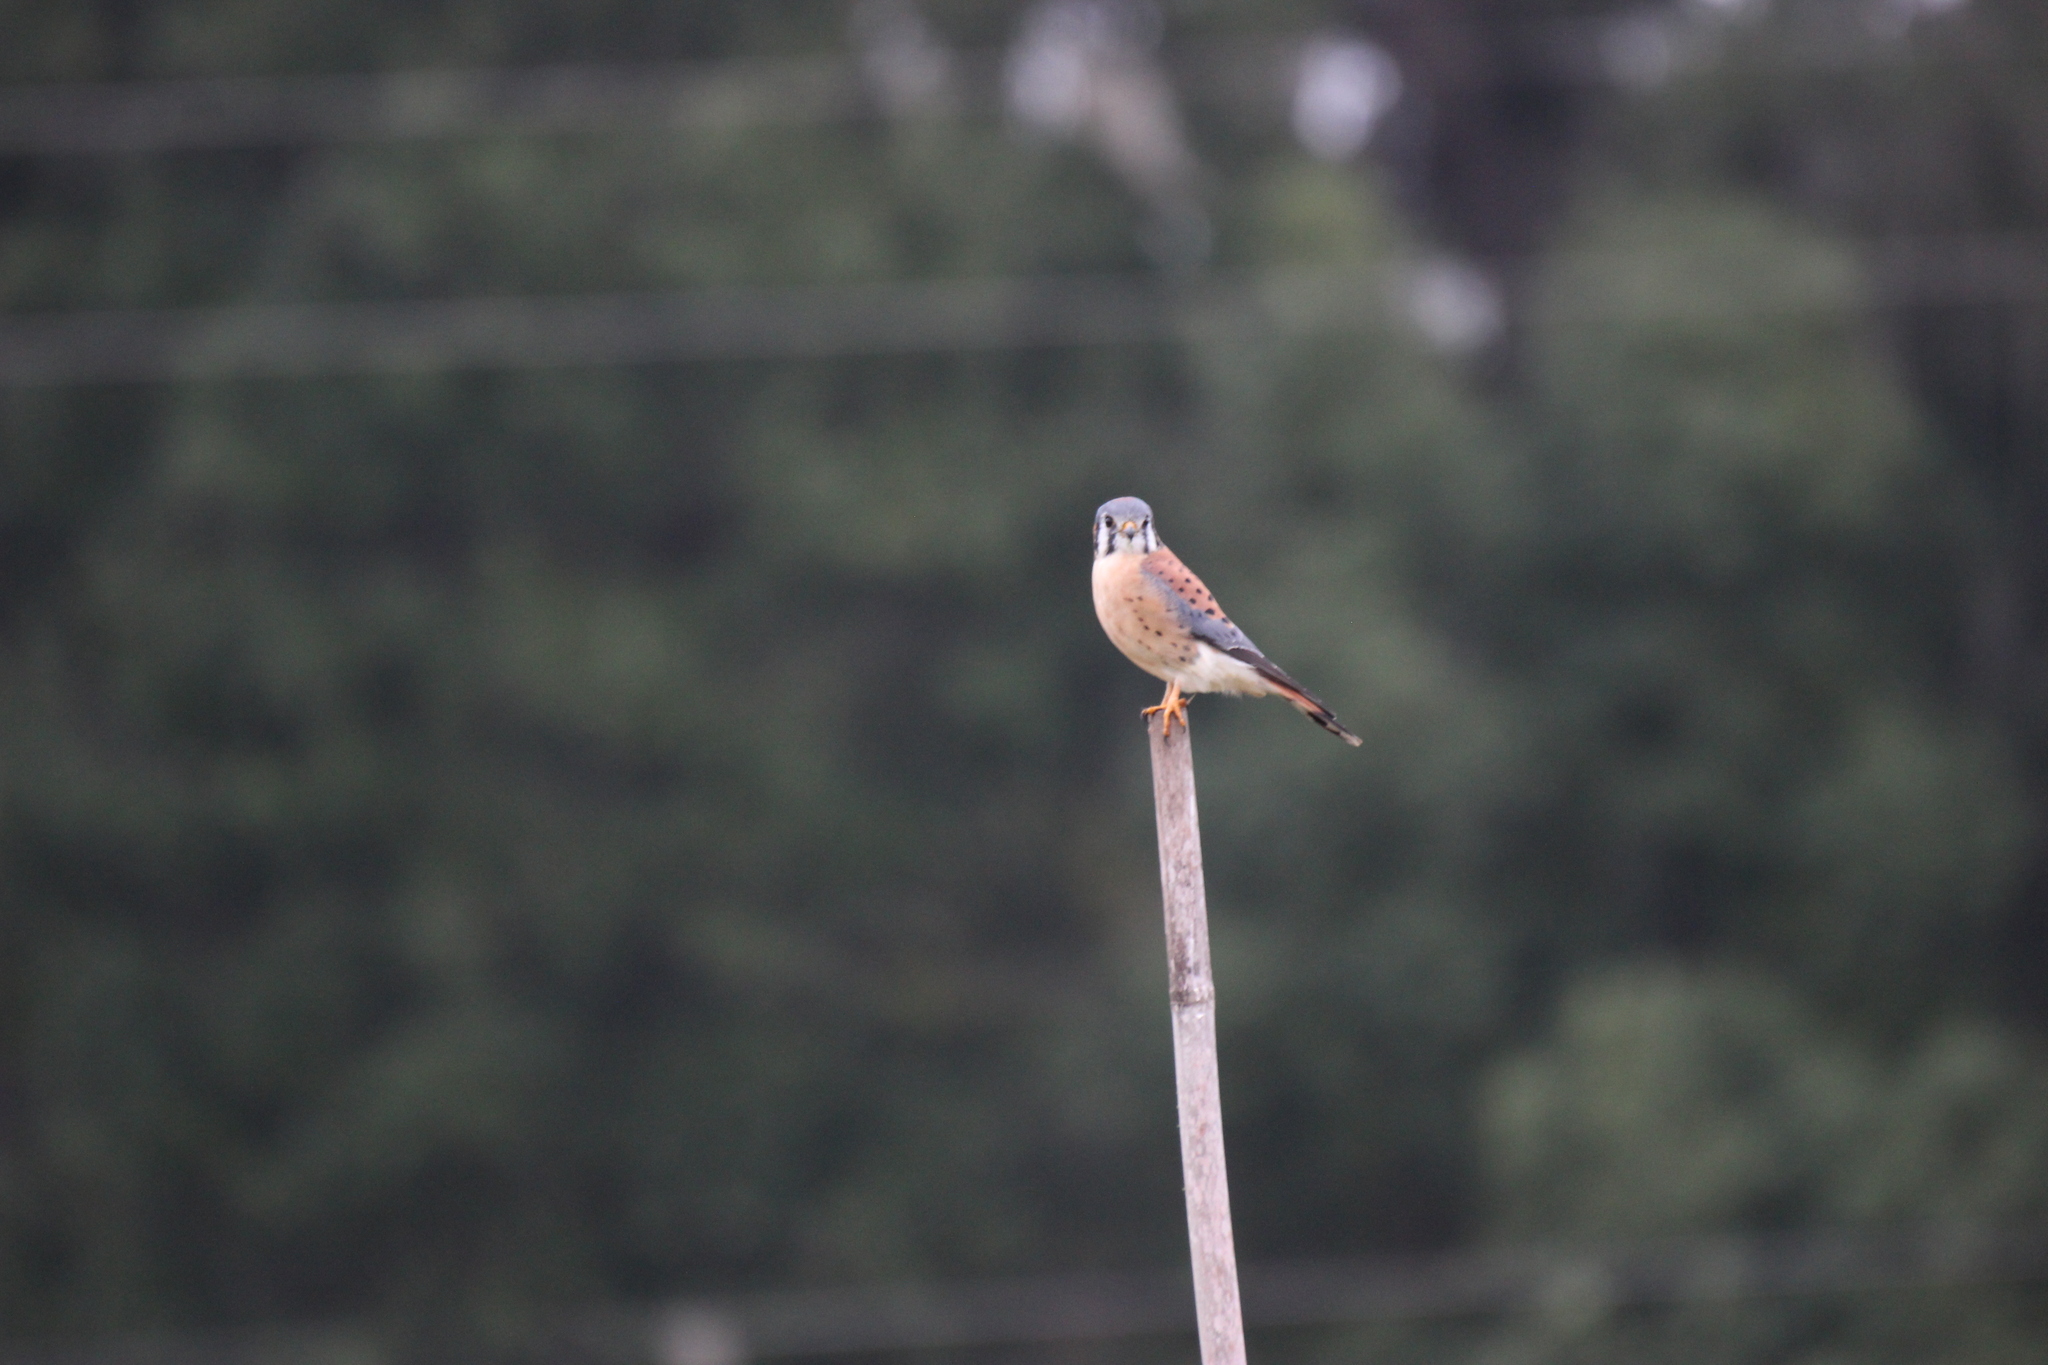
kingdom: Animalia
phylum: Chordata
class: Aves
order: Falconiformes
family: Falconidae
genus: Falco
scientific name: Falco sparverius
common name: American kestrel
